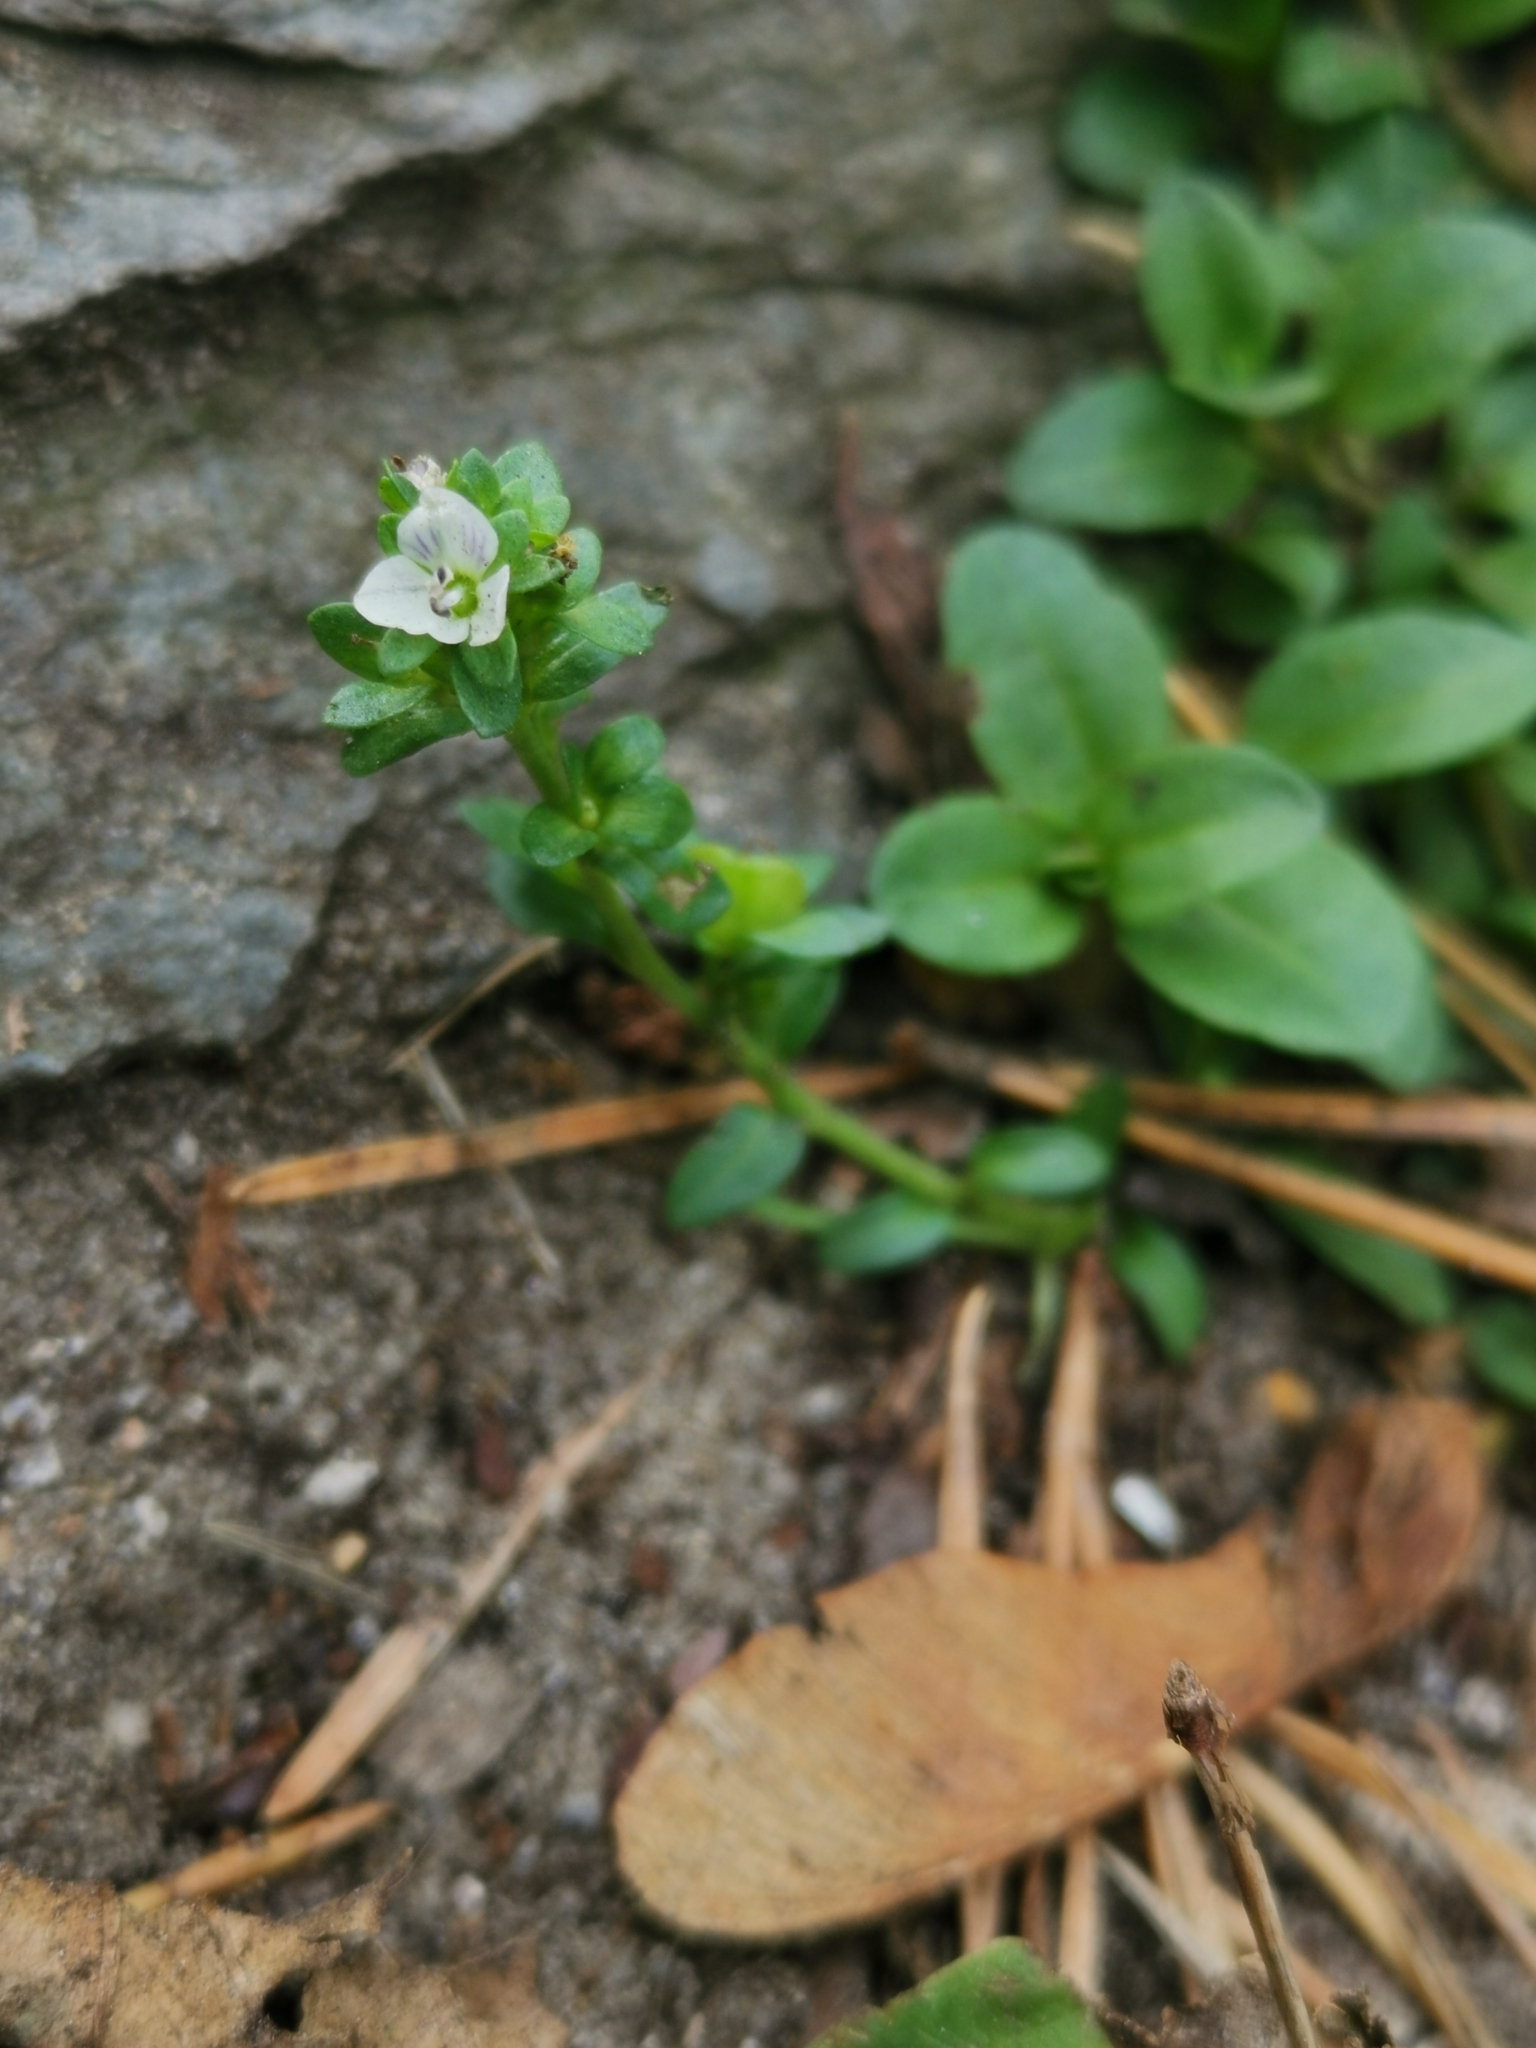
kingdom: Plantae
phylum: Tracheophyta
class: Magnoliopsida
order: Lamiales
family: Plantaginaceae
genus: Veronica
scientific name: Veronica serpyllifolia
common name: Thyme-leaved speedwell
